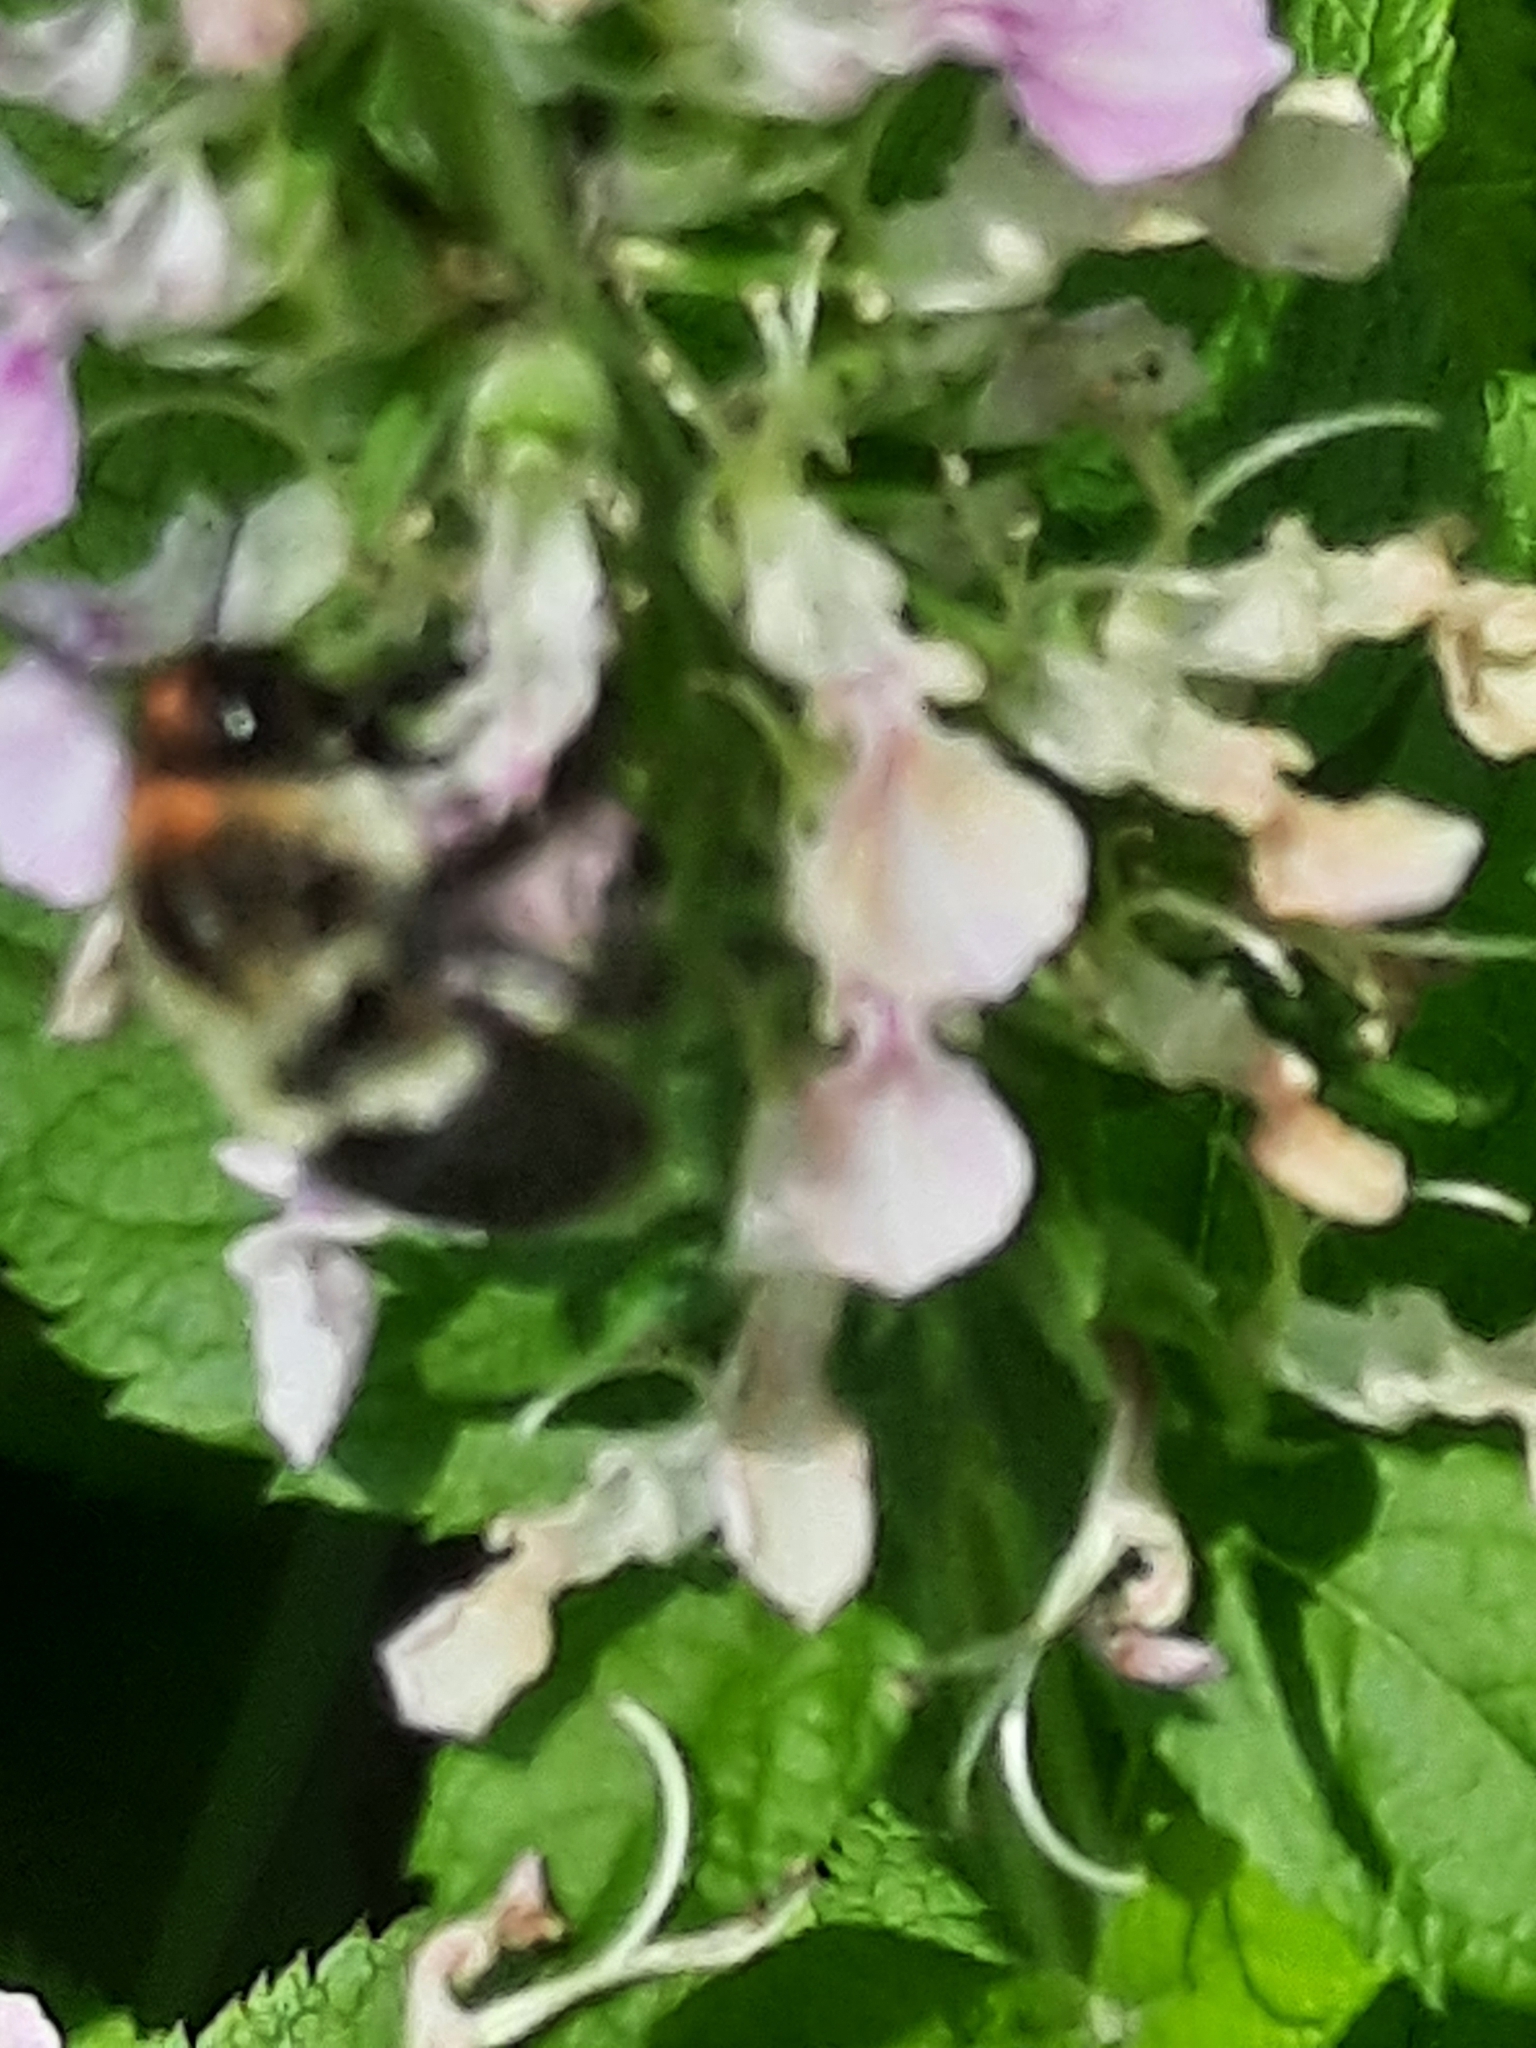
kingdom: Animalia
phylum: Arthropoda
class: Insecta
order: Hymenoptera
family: Apidae
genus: Bombus
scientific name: Bombus impatiens
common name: Common eastern bumble bee
